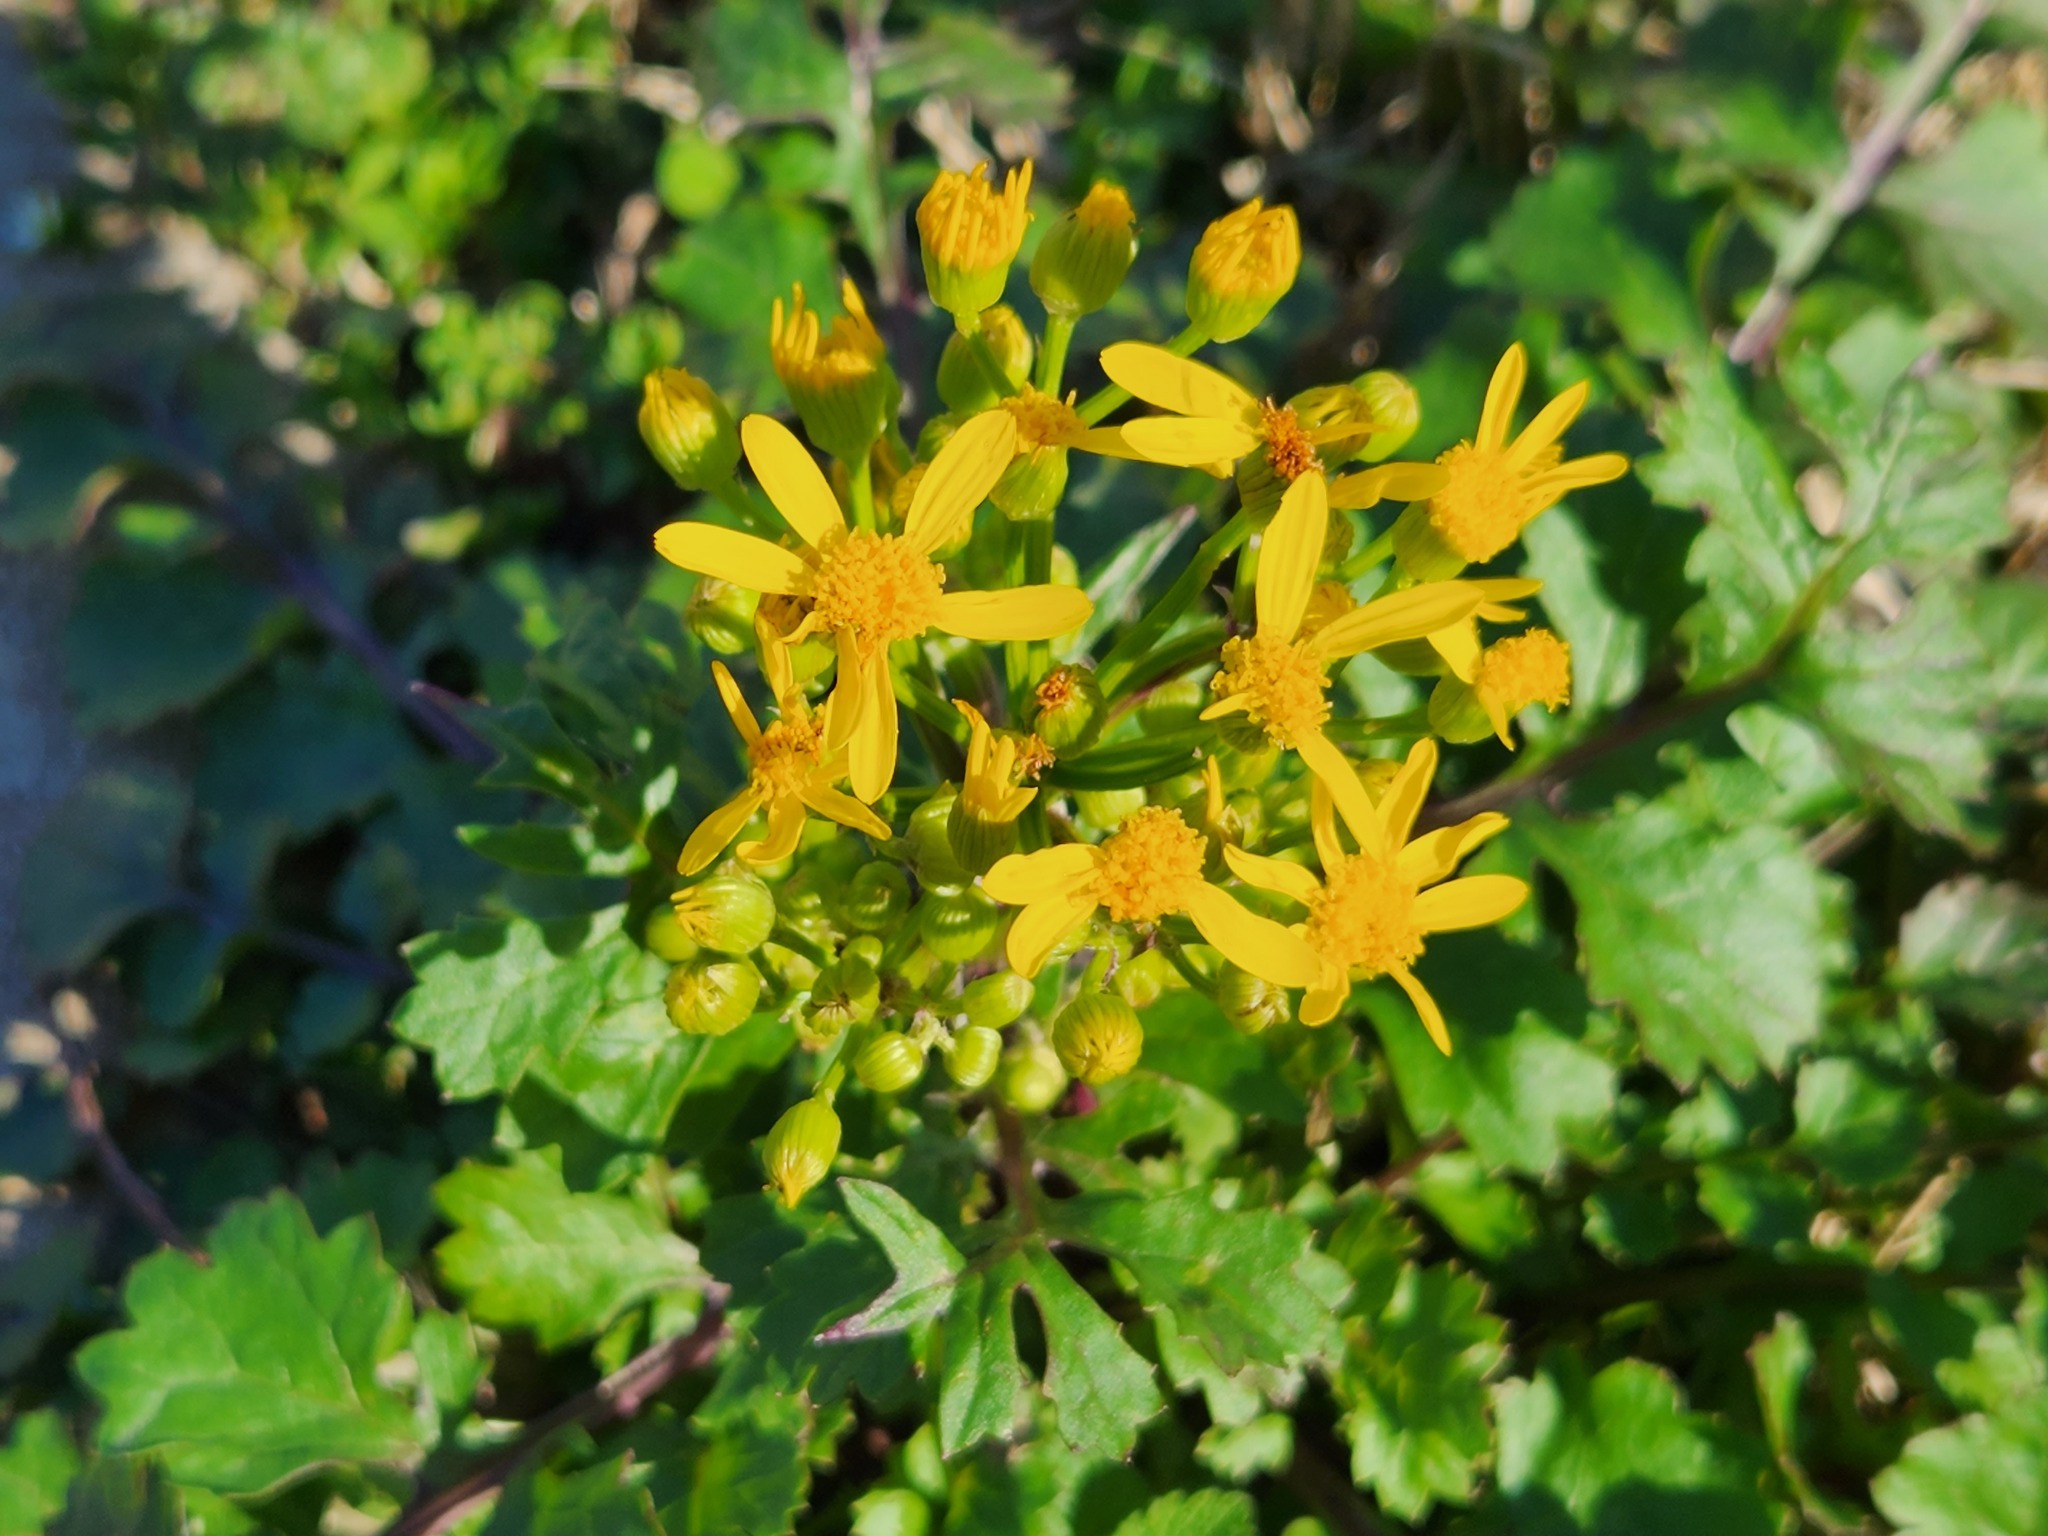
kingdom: Plantae
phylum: Tracheophyta
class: Magnoliopsida
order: Asterales
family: Asteraceae
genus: Packera
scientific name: Packera glabella
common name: Butterweed
